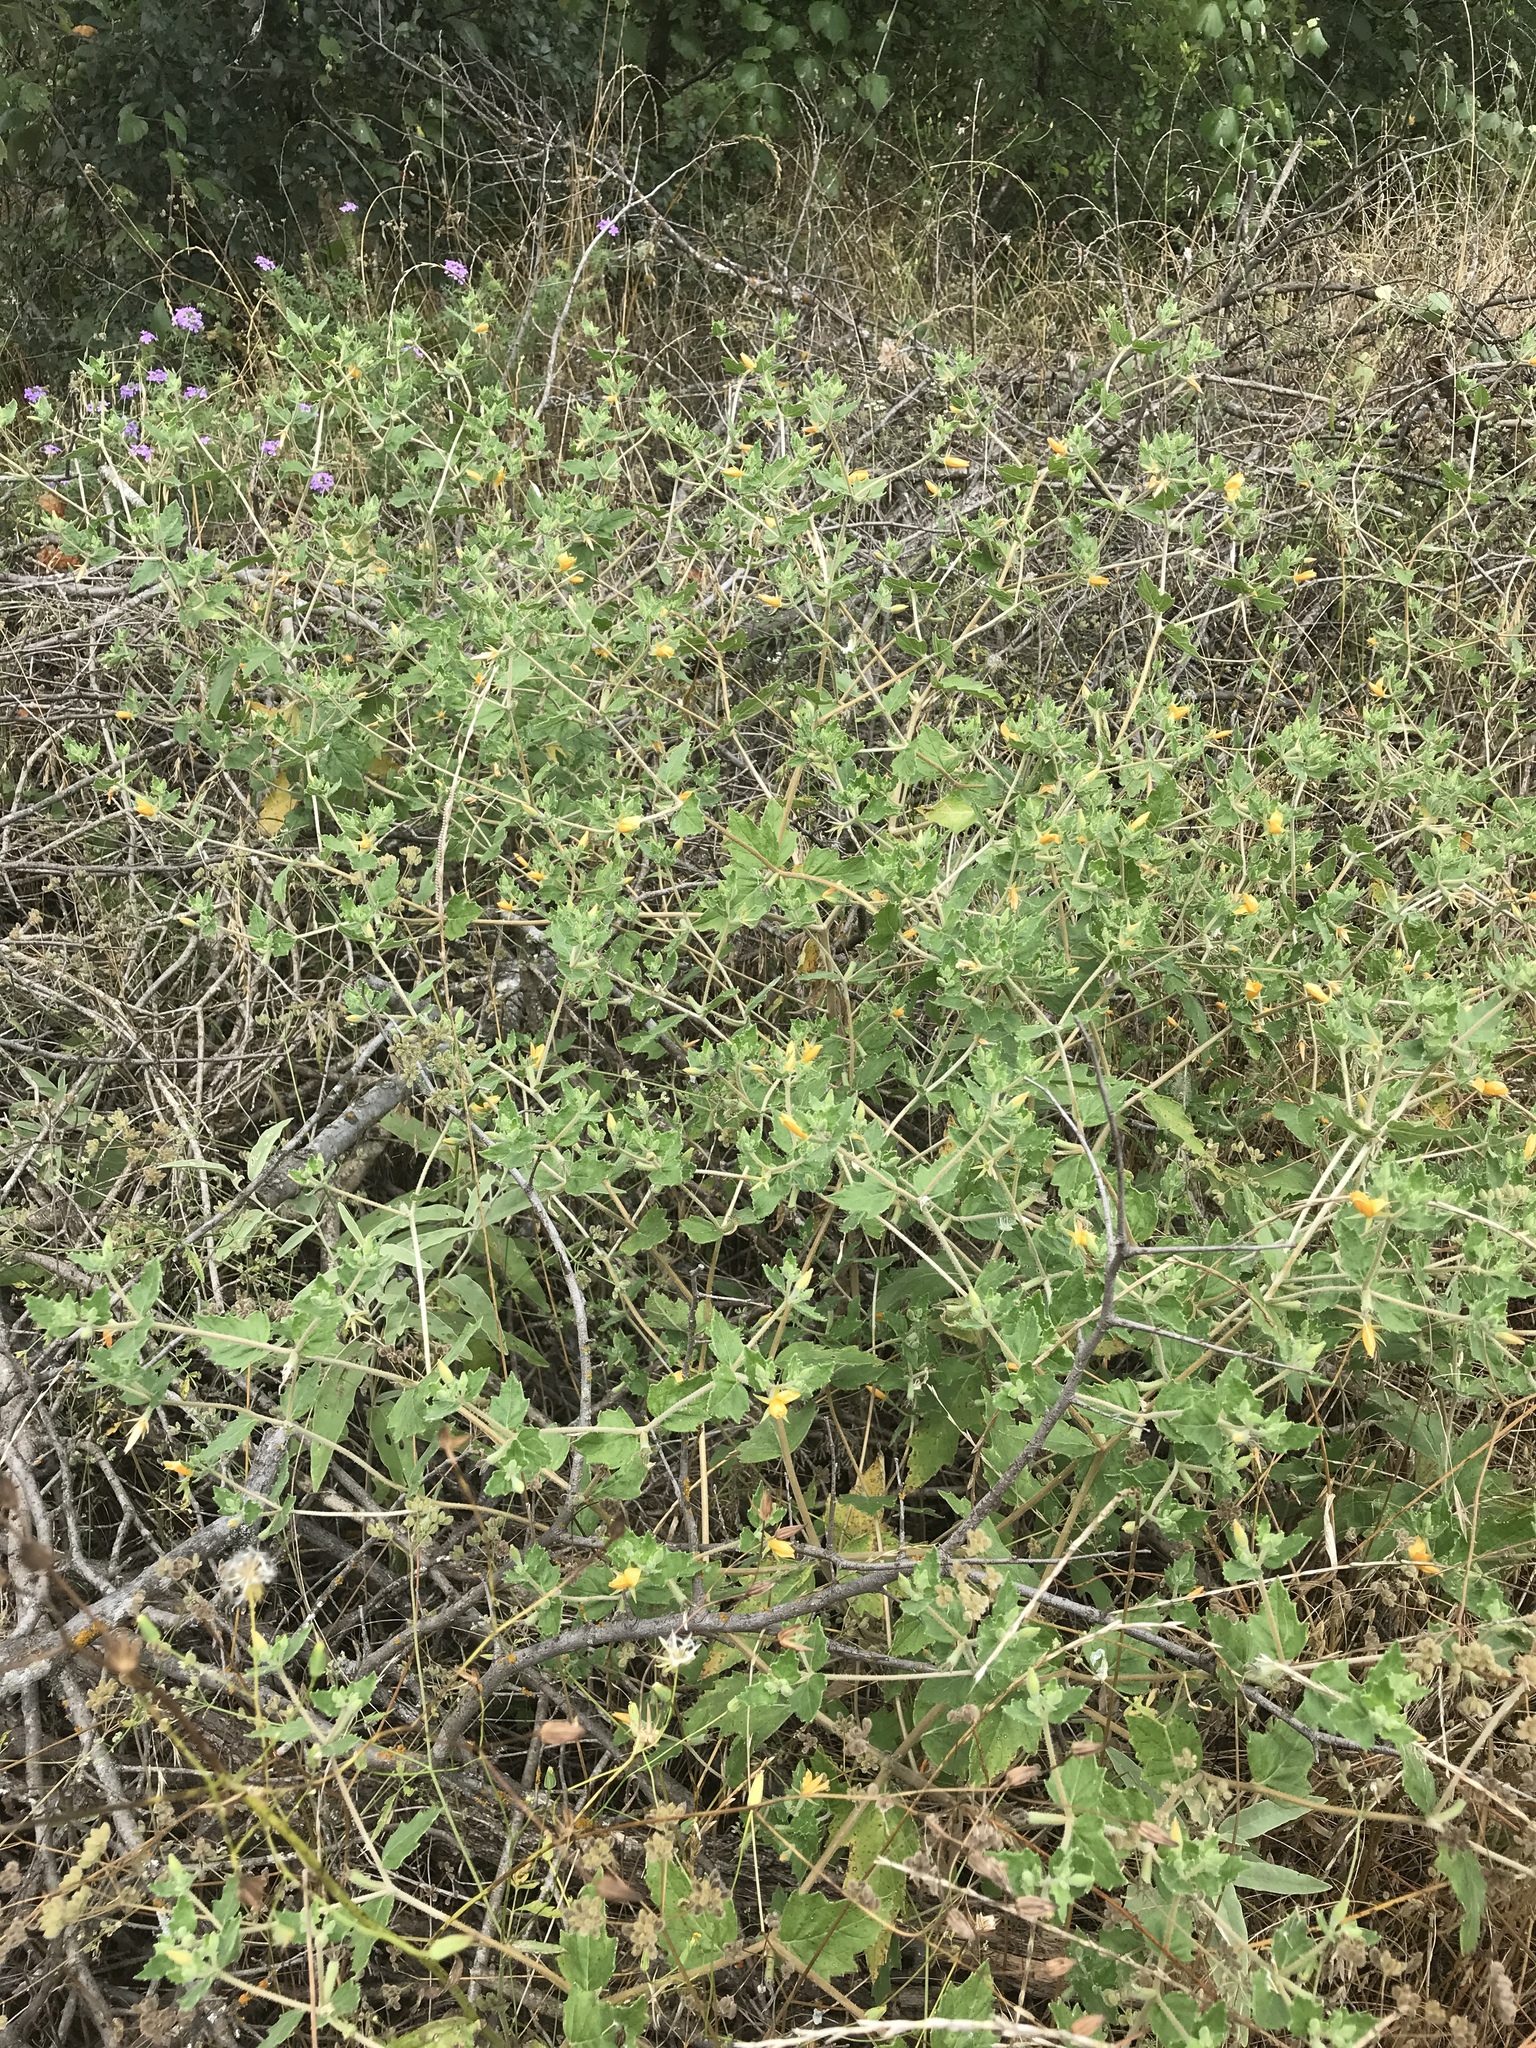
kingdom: Plantae
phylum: Tracheophyta
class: Magnoliopsida
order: Cornales
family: Loasaceae
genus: Mentzelia
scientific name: Mentzelia oligosperma
